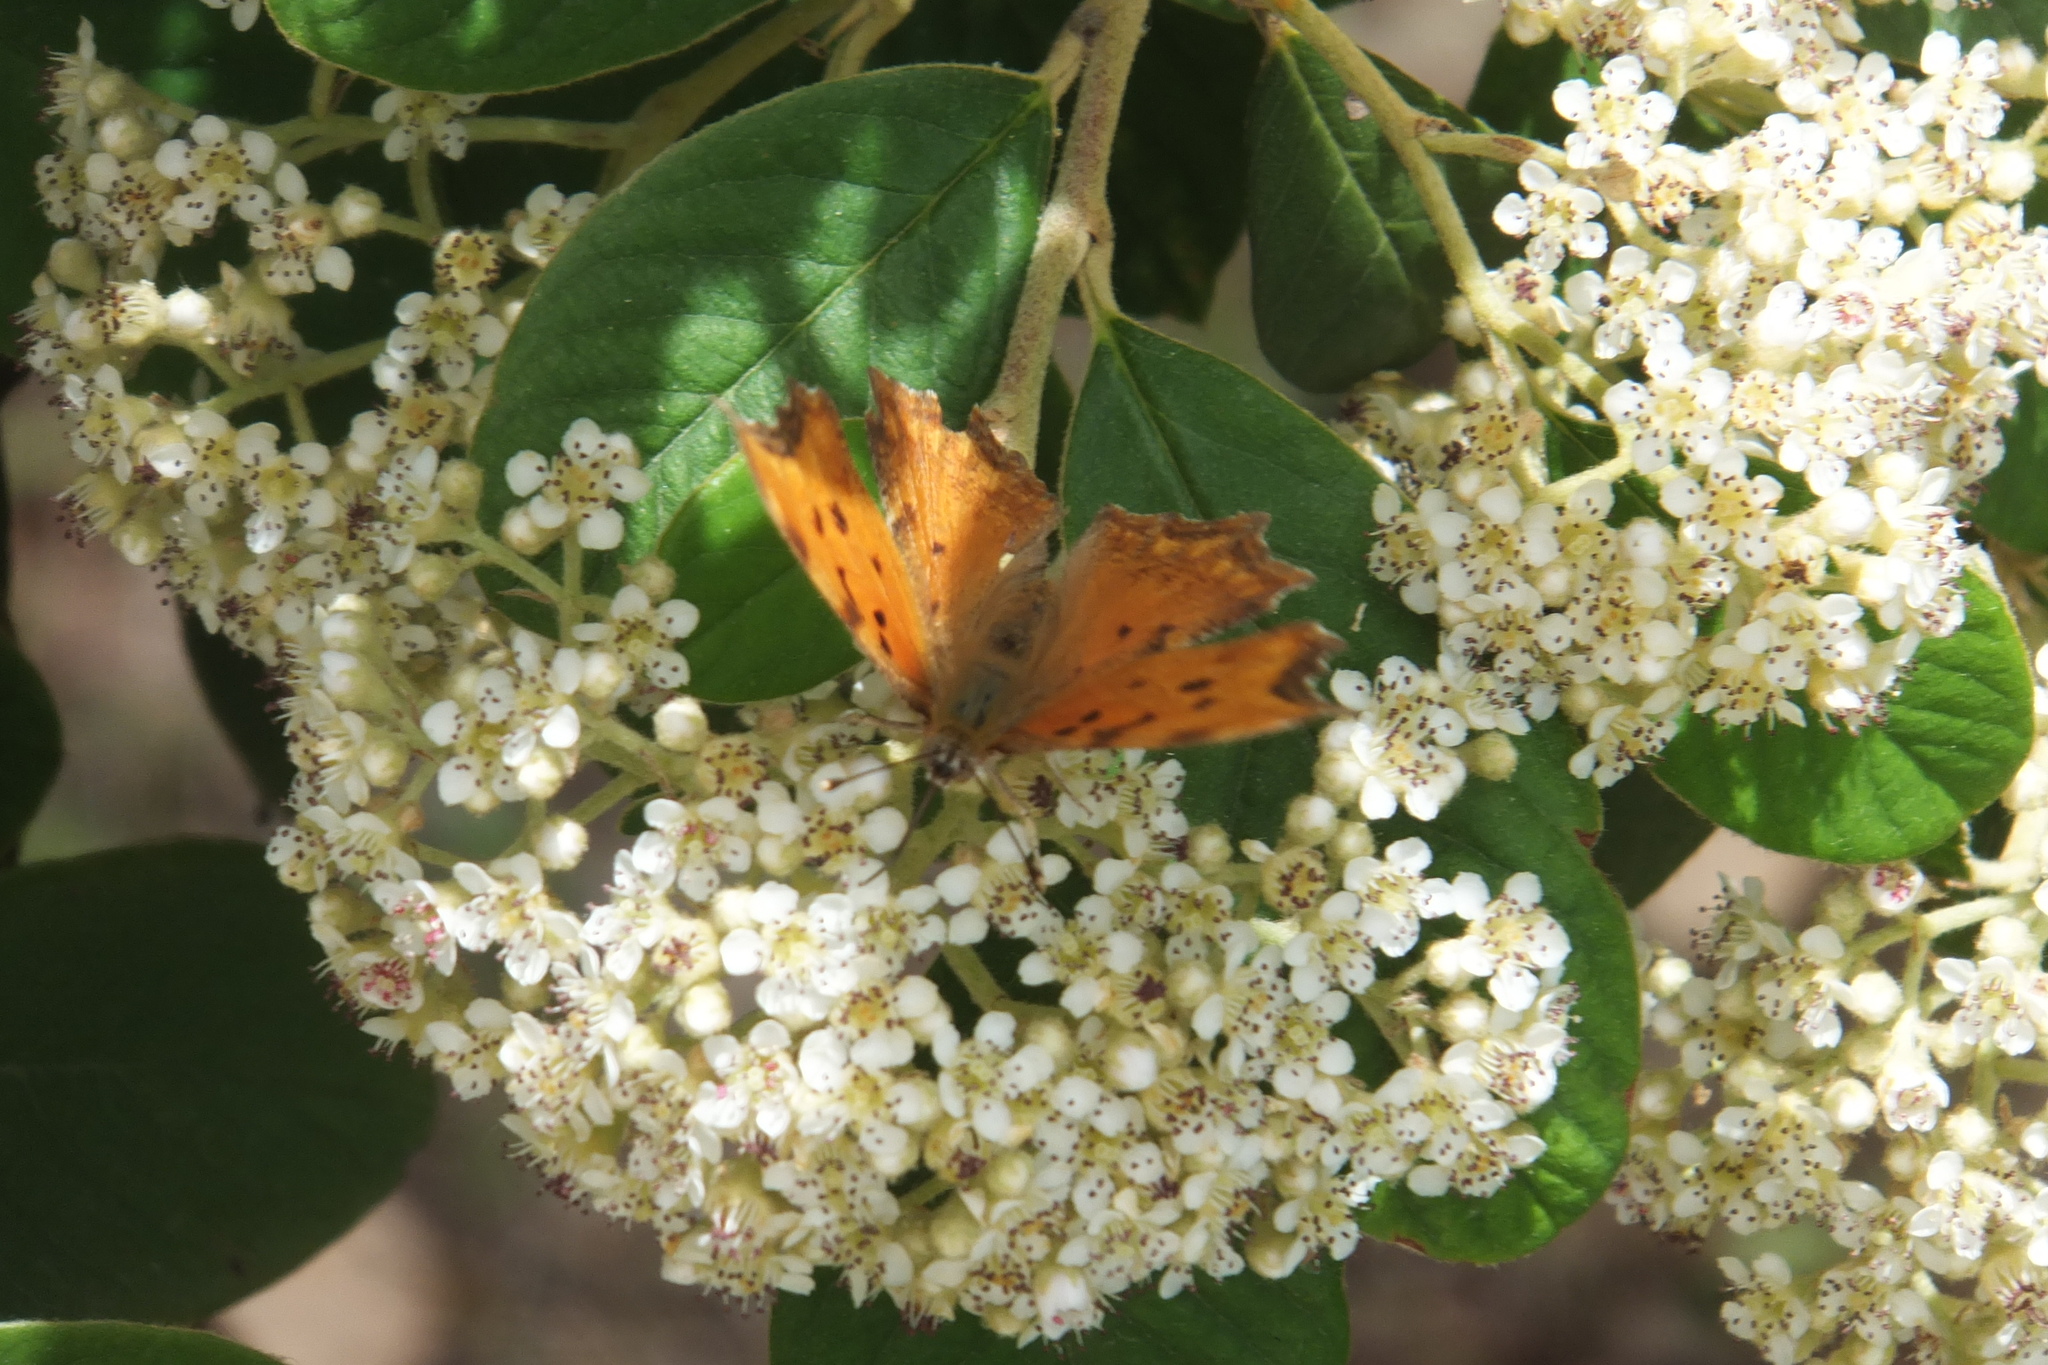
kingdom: Animalia
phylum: Arthropoda
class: Insecta
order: Lepidoptera
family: Nymphalidae
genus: Polygonia
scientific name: Polygonia egea
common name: Southern comma
